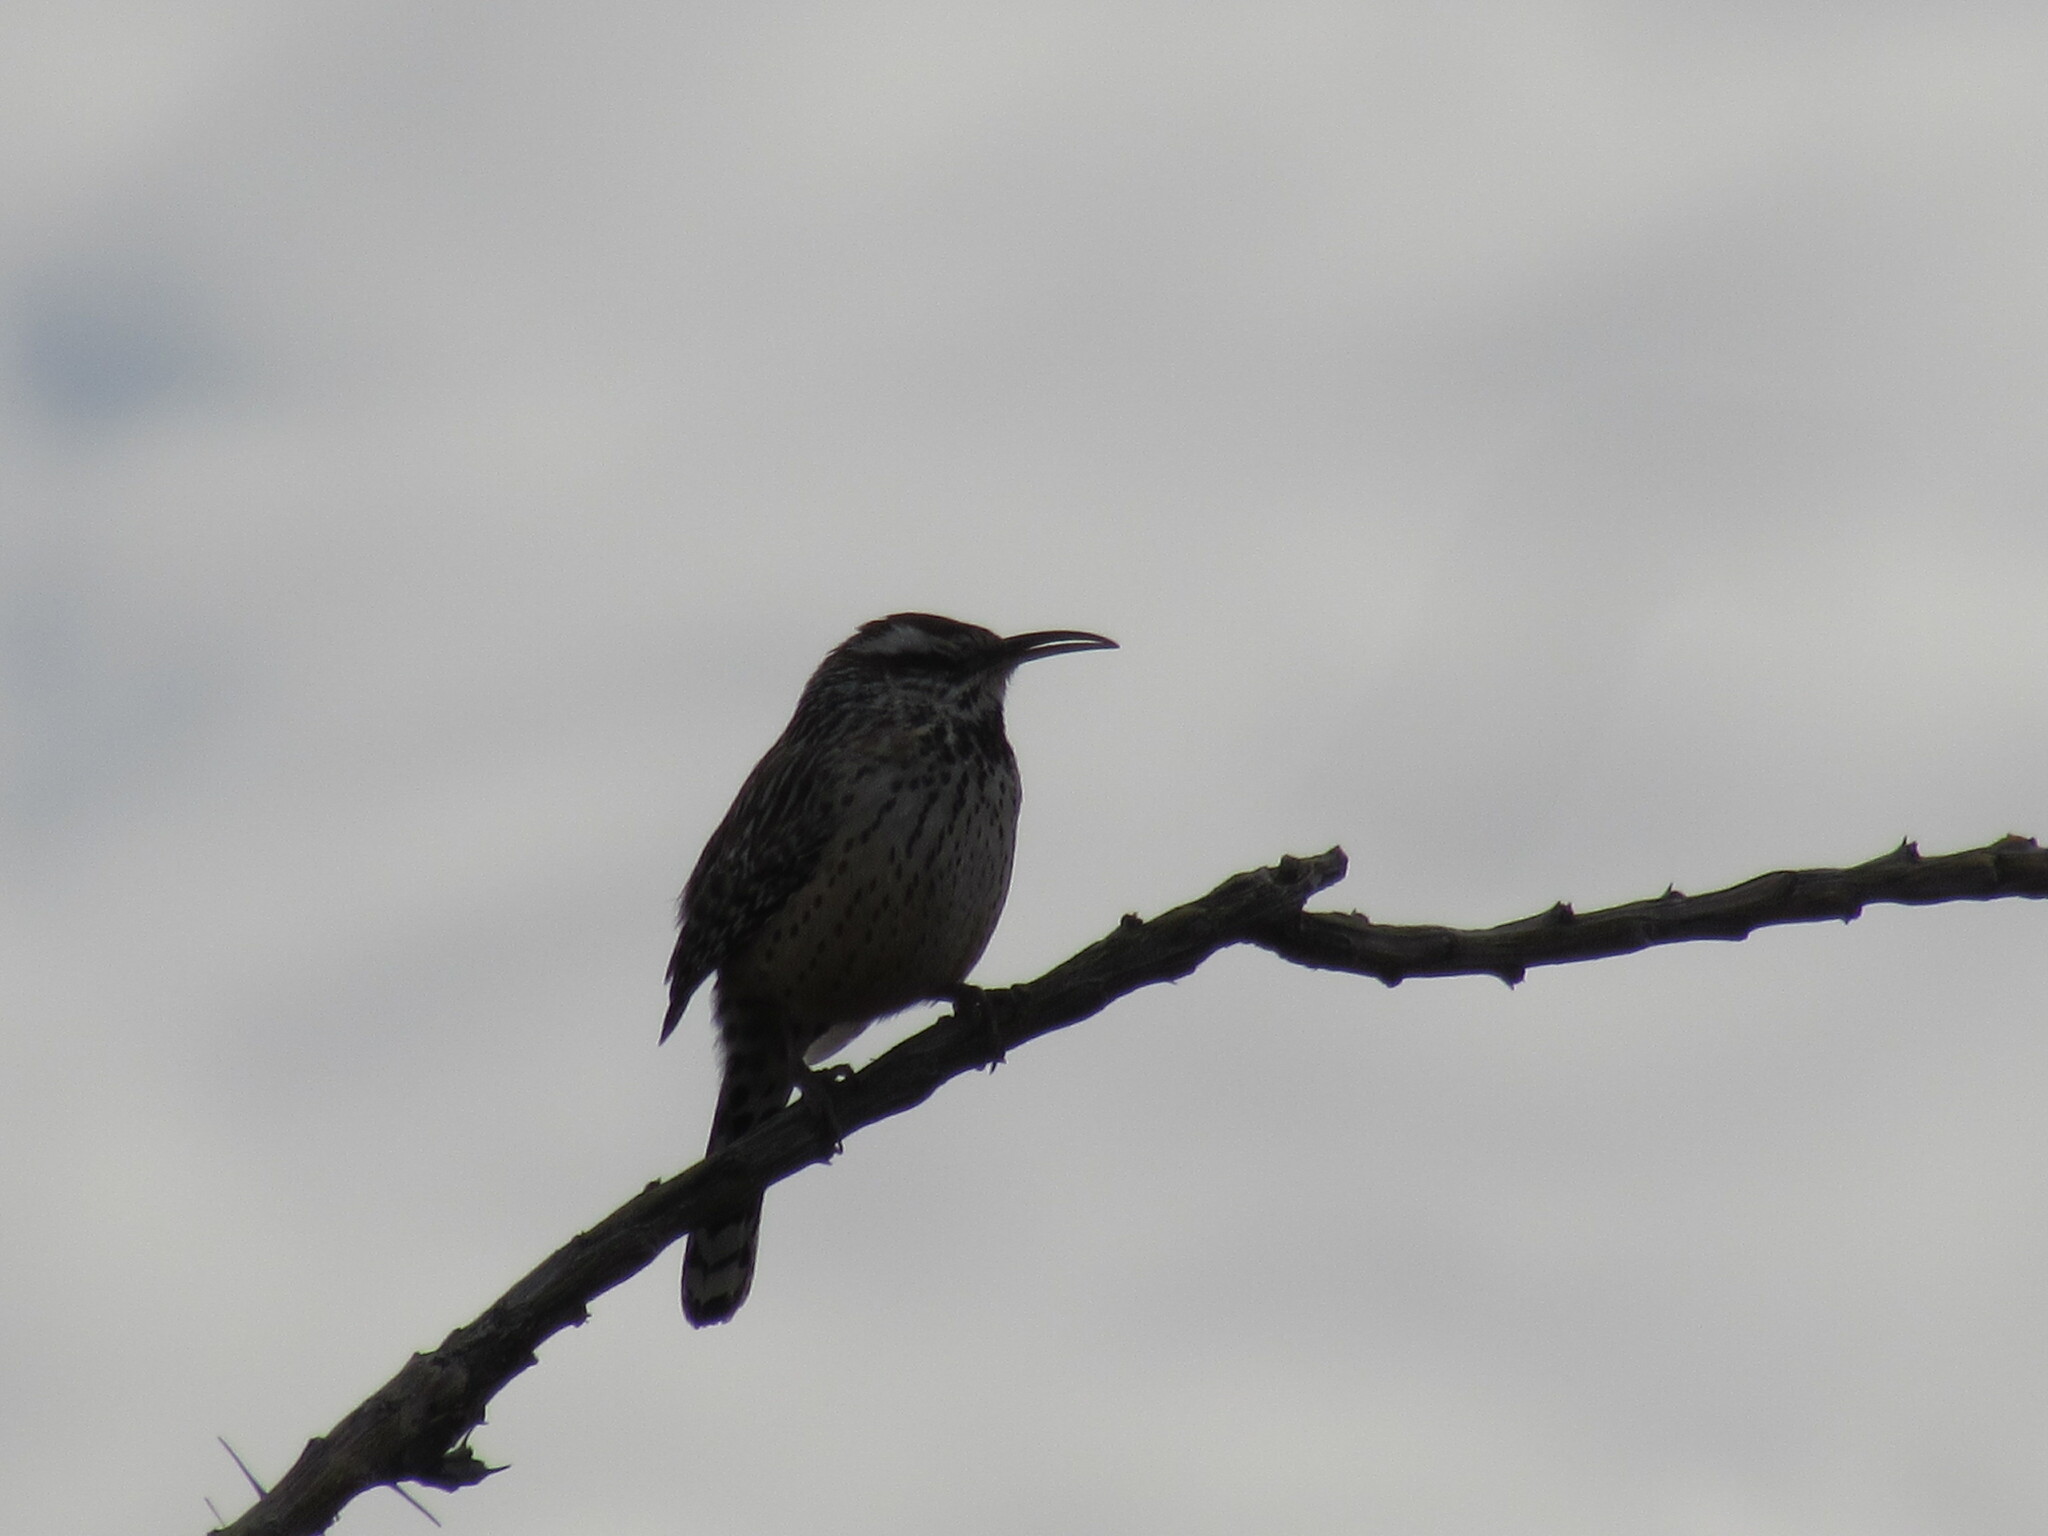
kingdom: Animalia
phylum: Chordata
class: Aves
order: Passeriformes
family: Troglodytidae
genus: Campylorhynchus
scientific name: Campylorhynchus brunneicapillus
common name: Cactus wren
